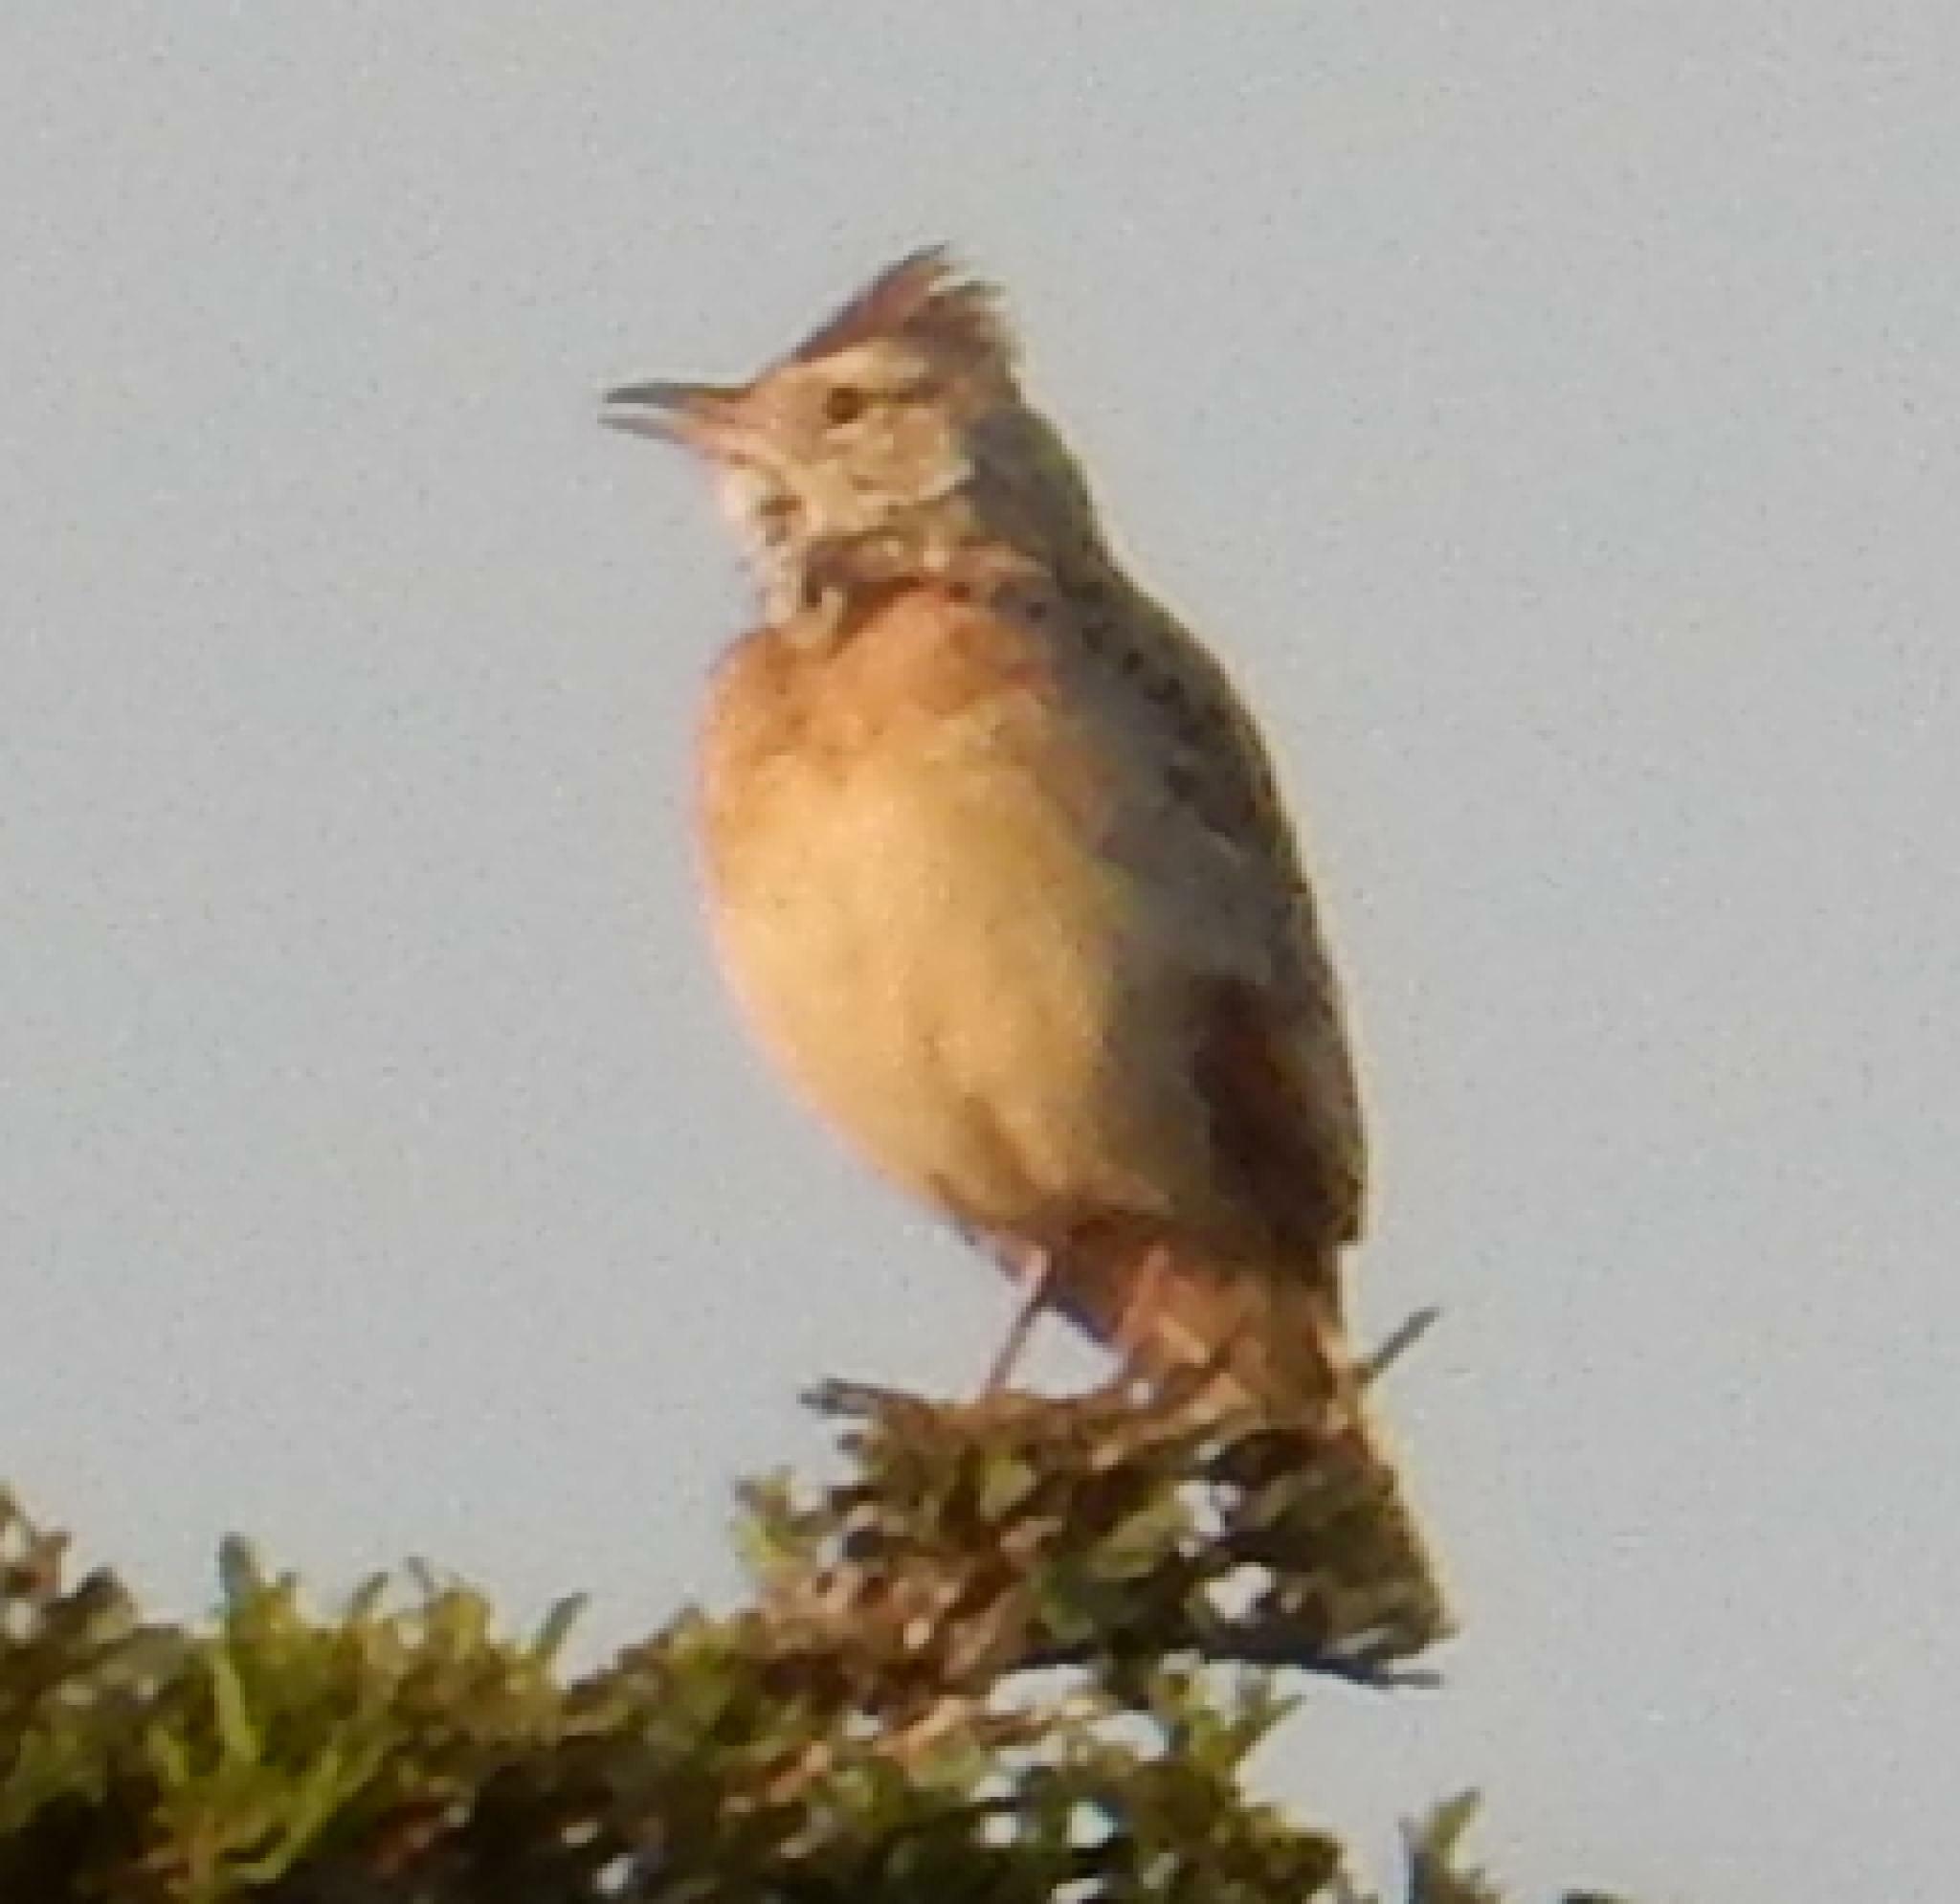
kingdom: Animalia
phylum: Chordata
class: Aves
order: Passeriformes
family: Alaudidae
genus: Mirafra
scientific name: Mirafra africana
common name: Rufous-naped lark
